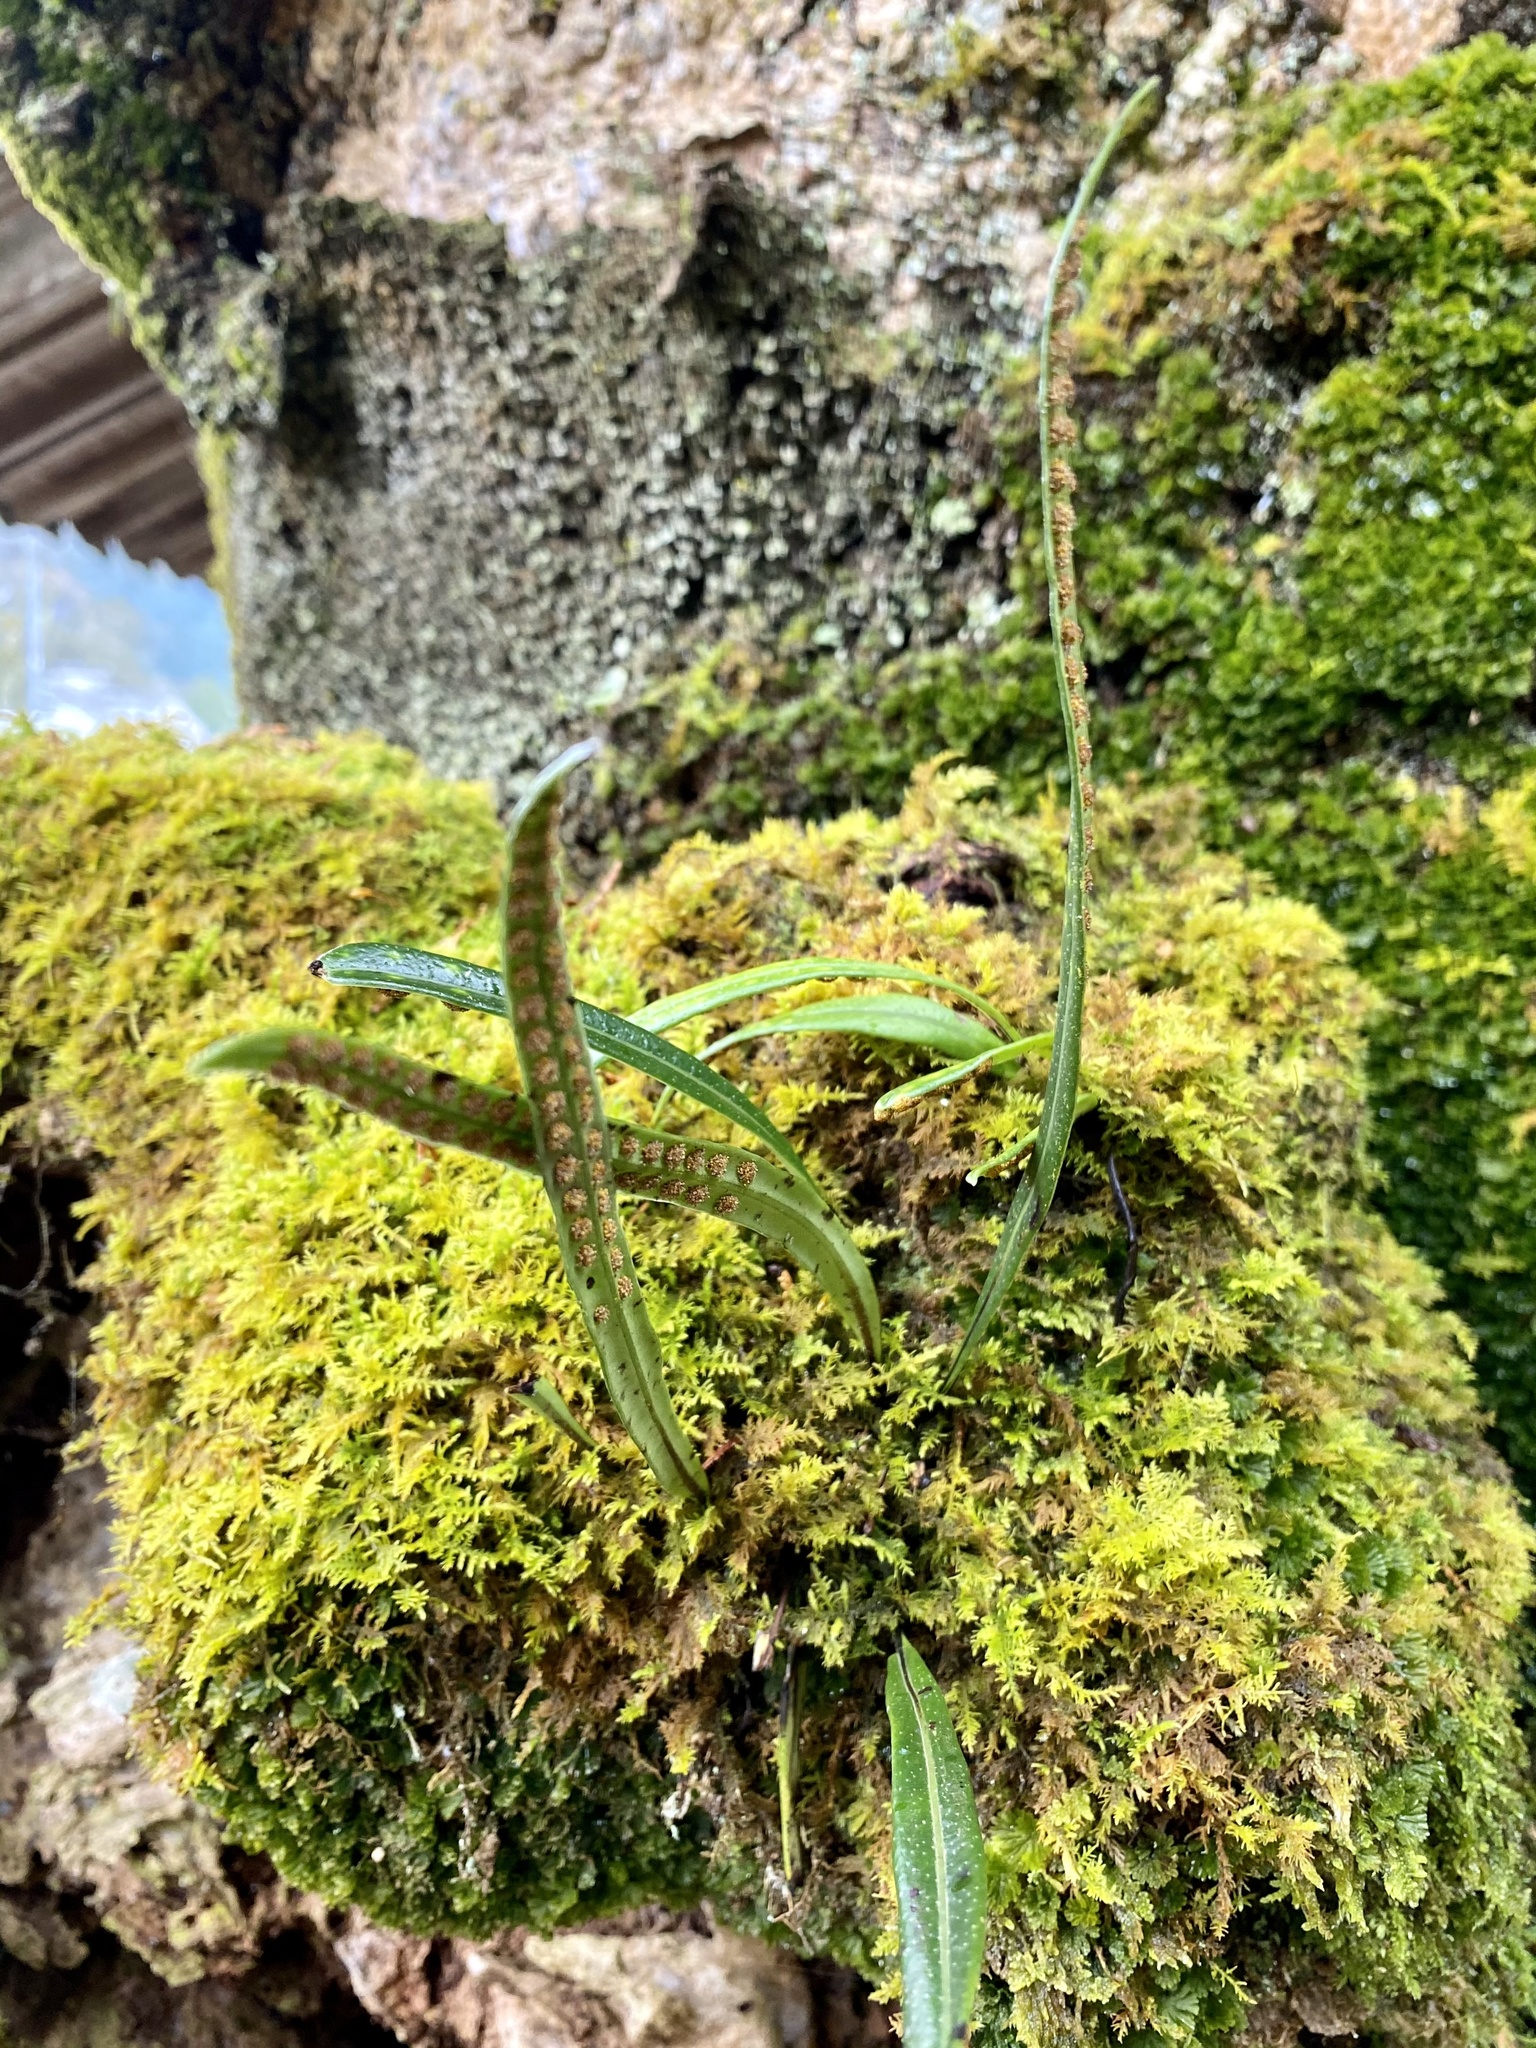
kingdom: Plantae
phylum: Tracheophyta
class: Polypodiopsida
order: Polypodiales
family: Polypodiaceae
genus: Lepisorus
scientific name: Lepisorus thunbergianus
